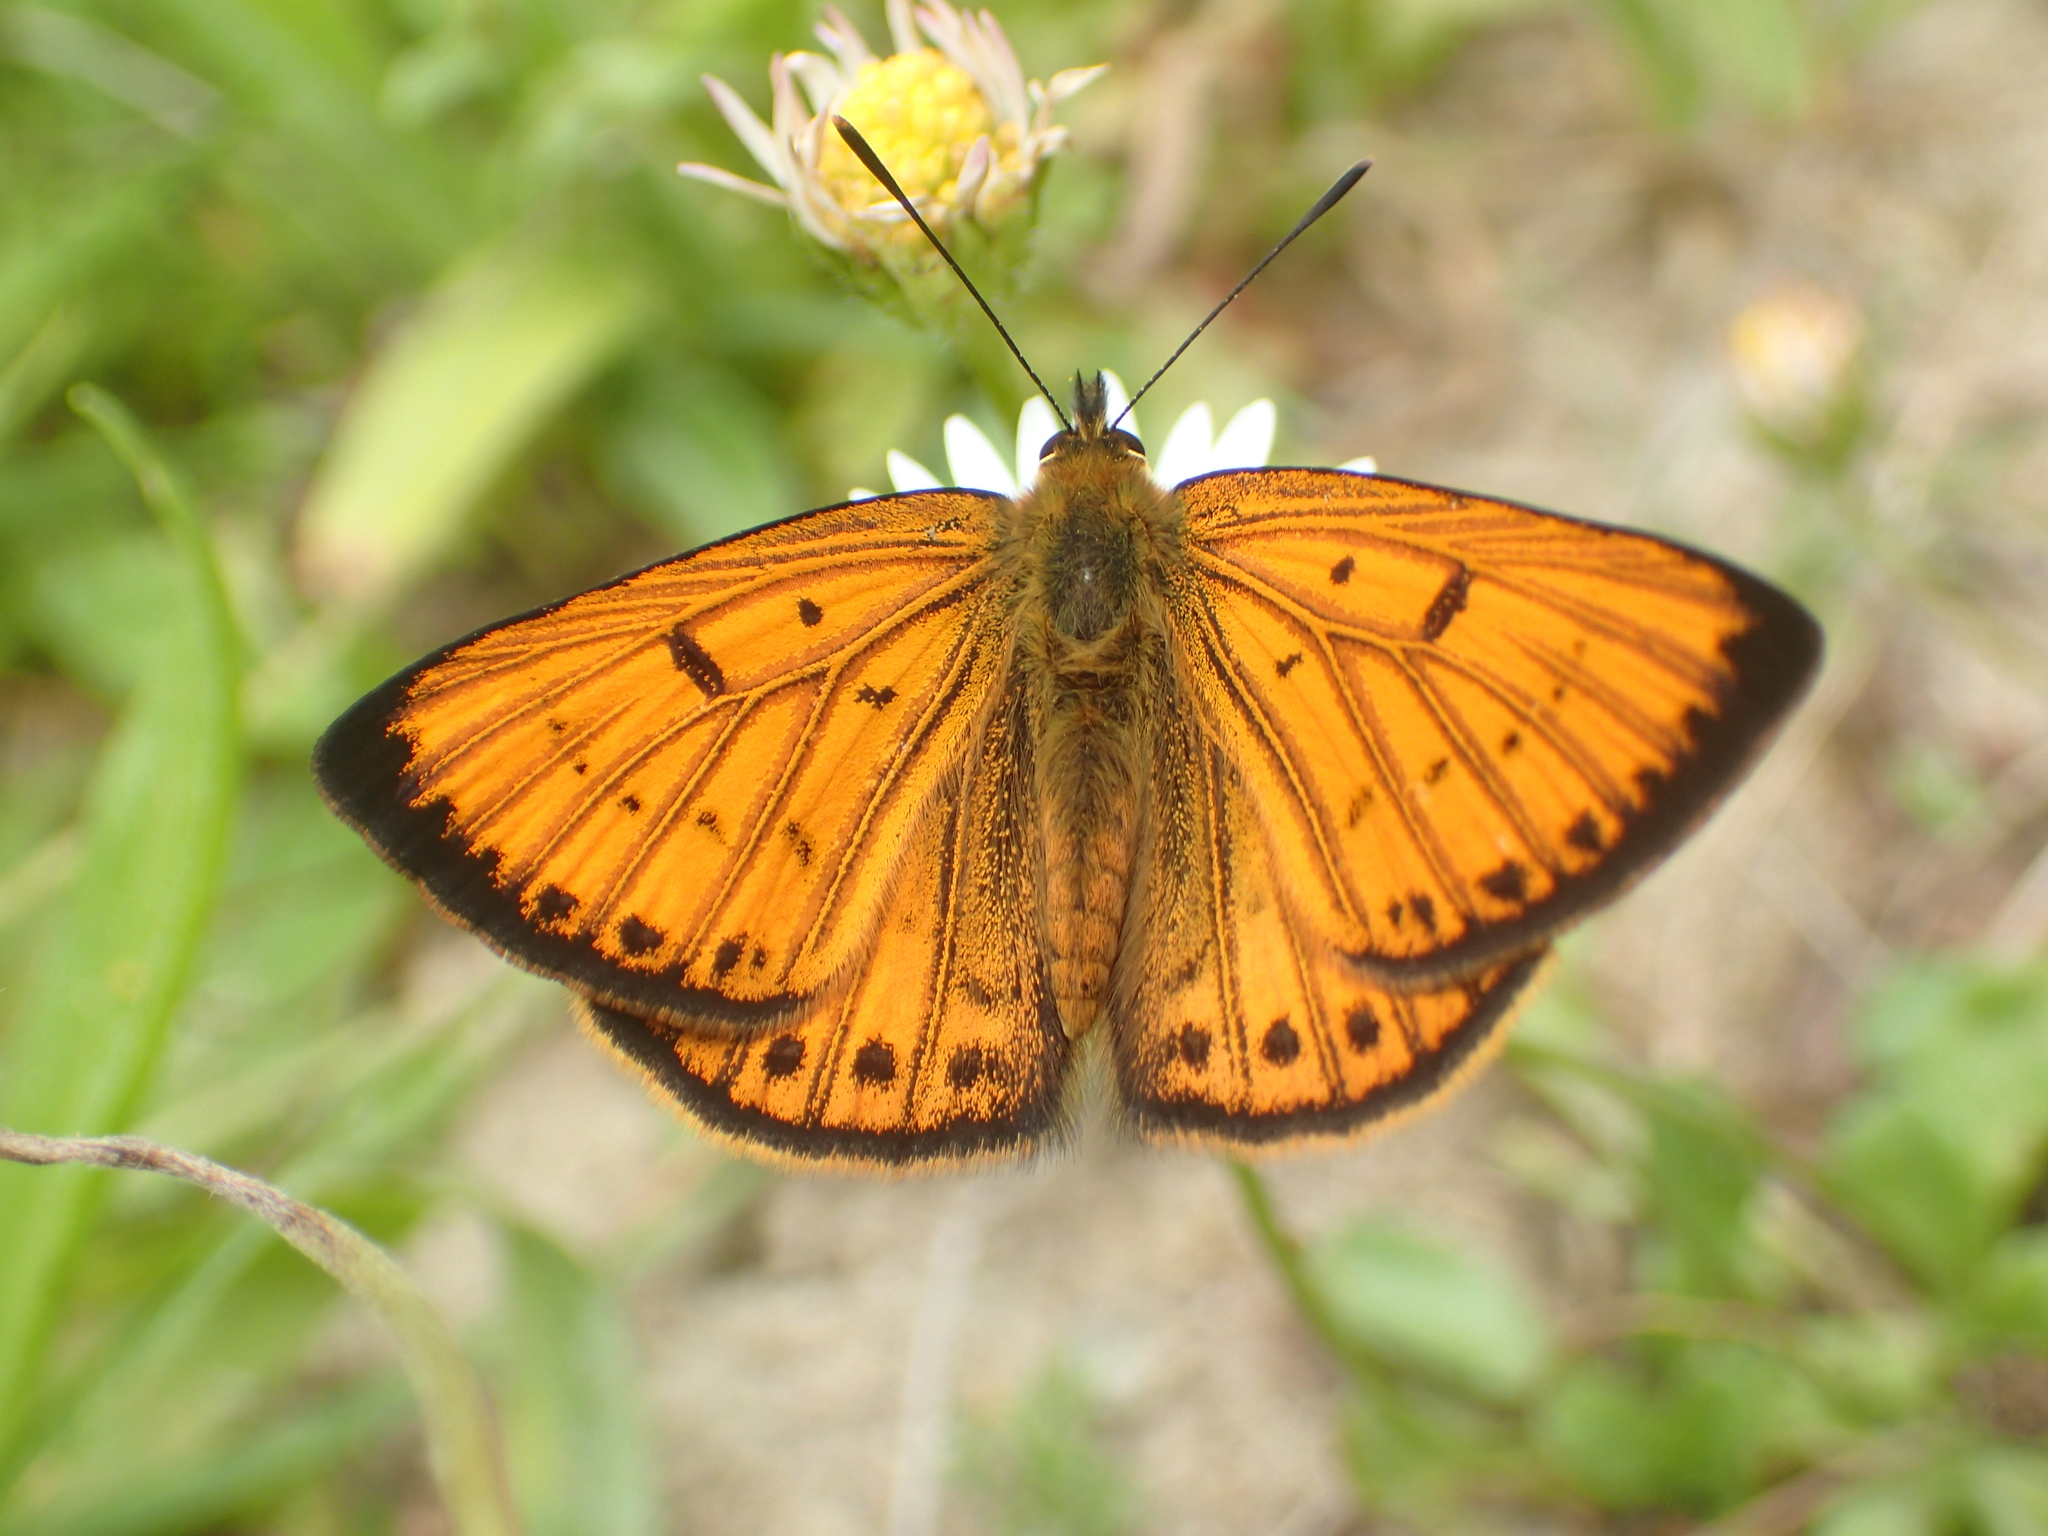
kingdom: Animalia
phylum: Arthropoda
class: Insecta
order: Lepidoptera
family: Lycaenidae
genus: Lycaena
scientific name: Lycaena salustius
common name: North island coastal copper
